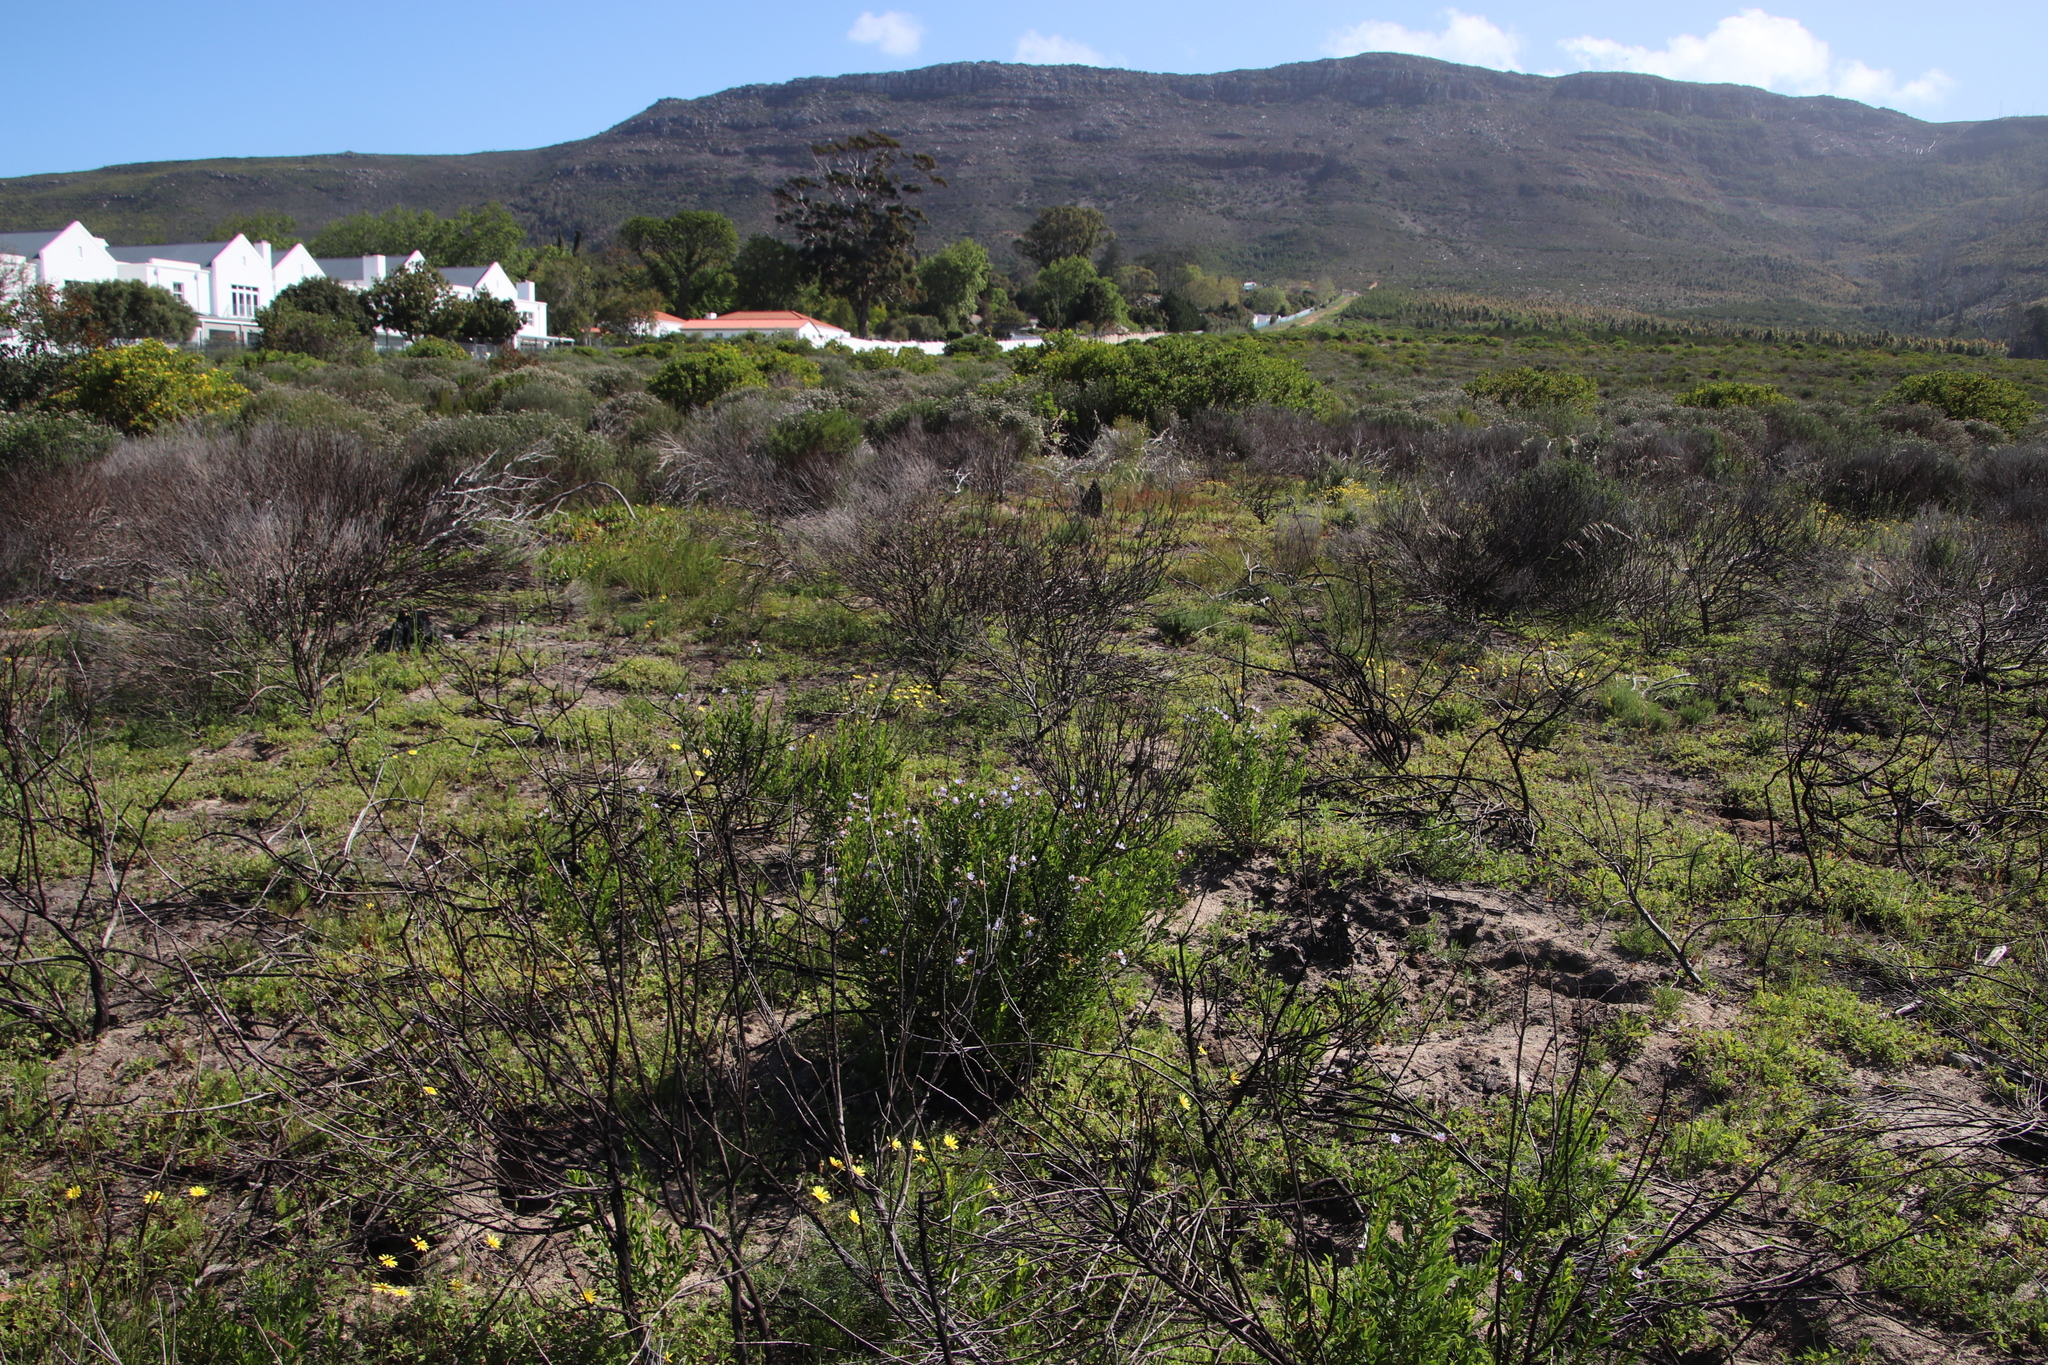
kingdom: Plantae
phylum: Tracheophyta
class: Magnoliopsida
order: Boraginales
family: Boraginaceae
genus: Lobostemon
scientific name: Lobostemon glaucophyllus
